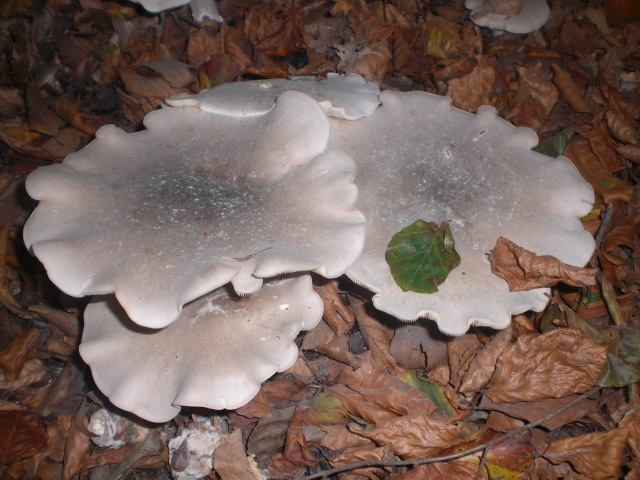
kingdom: Fungi
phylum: Basidiomycota
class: Agaricomycetes
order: Agaricales
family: Tricholomataceae
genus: Clitocybe
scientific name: Clitocybe nebularis
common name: Clouded agaric
